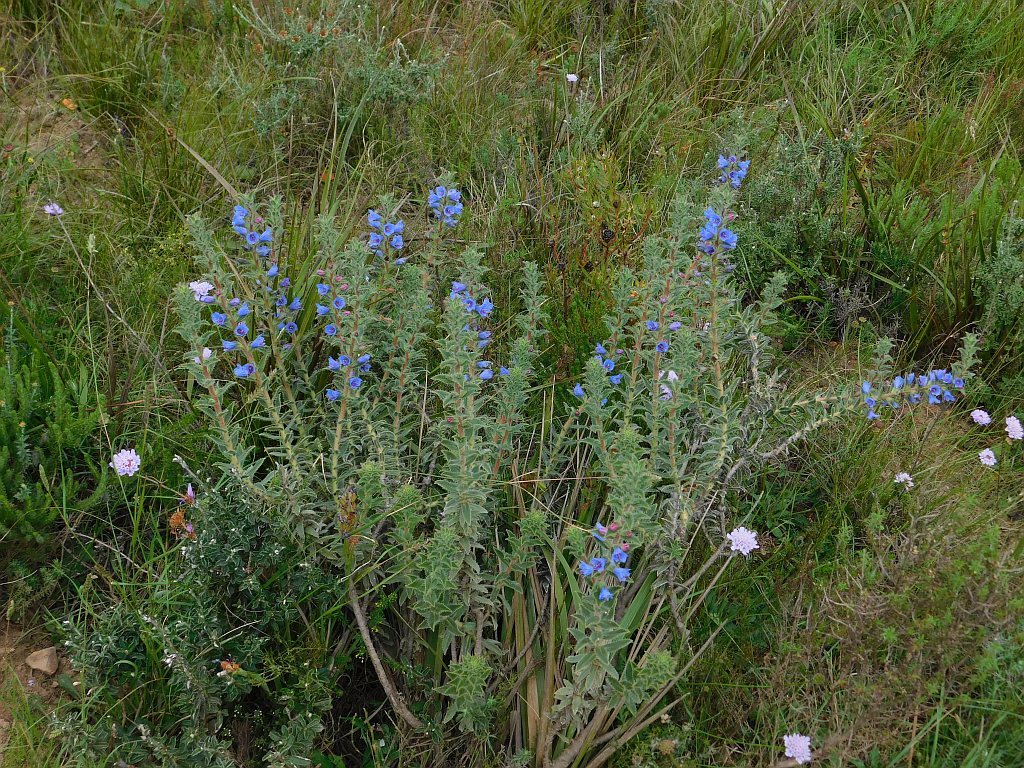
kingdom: Plantae
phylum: Tracheophyta
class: Magnoliopsida
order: Boraginales
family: Boraginaceae
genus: Lobostemon
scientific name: Lobostemon argenteus
